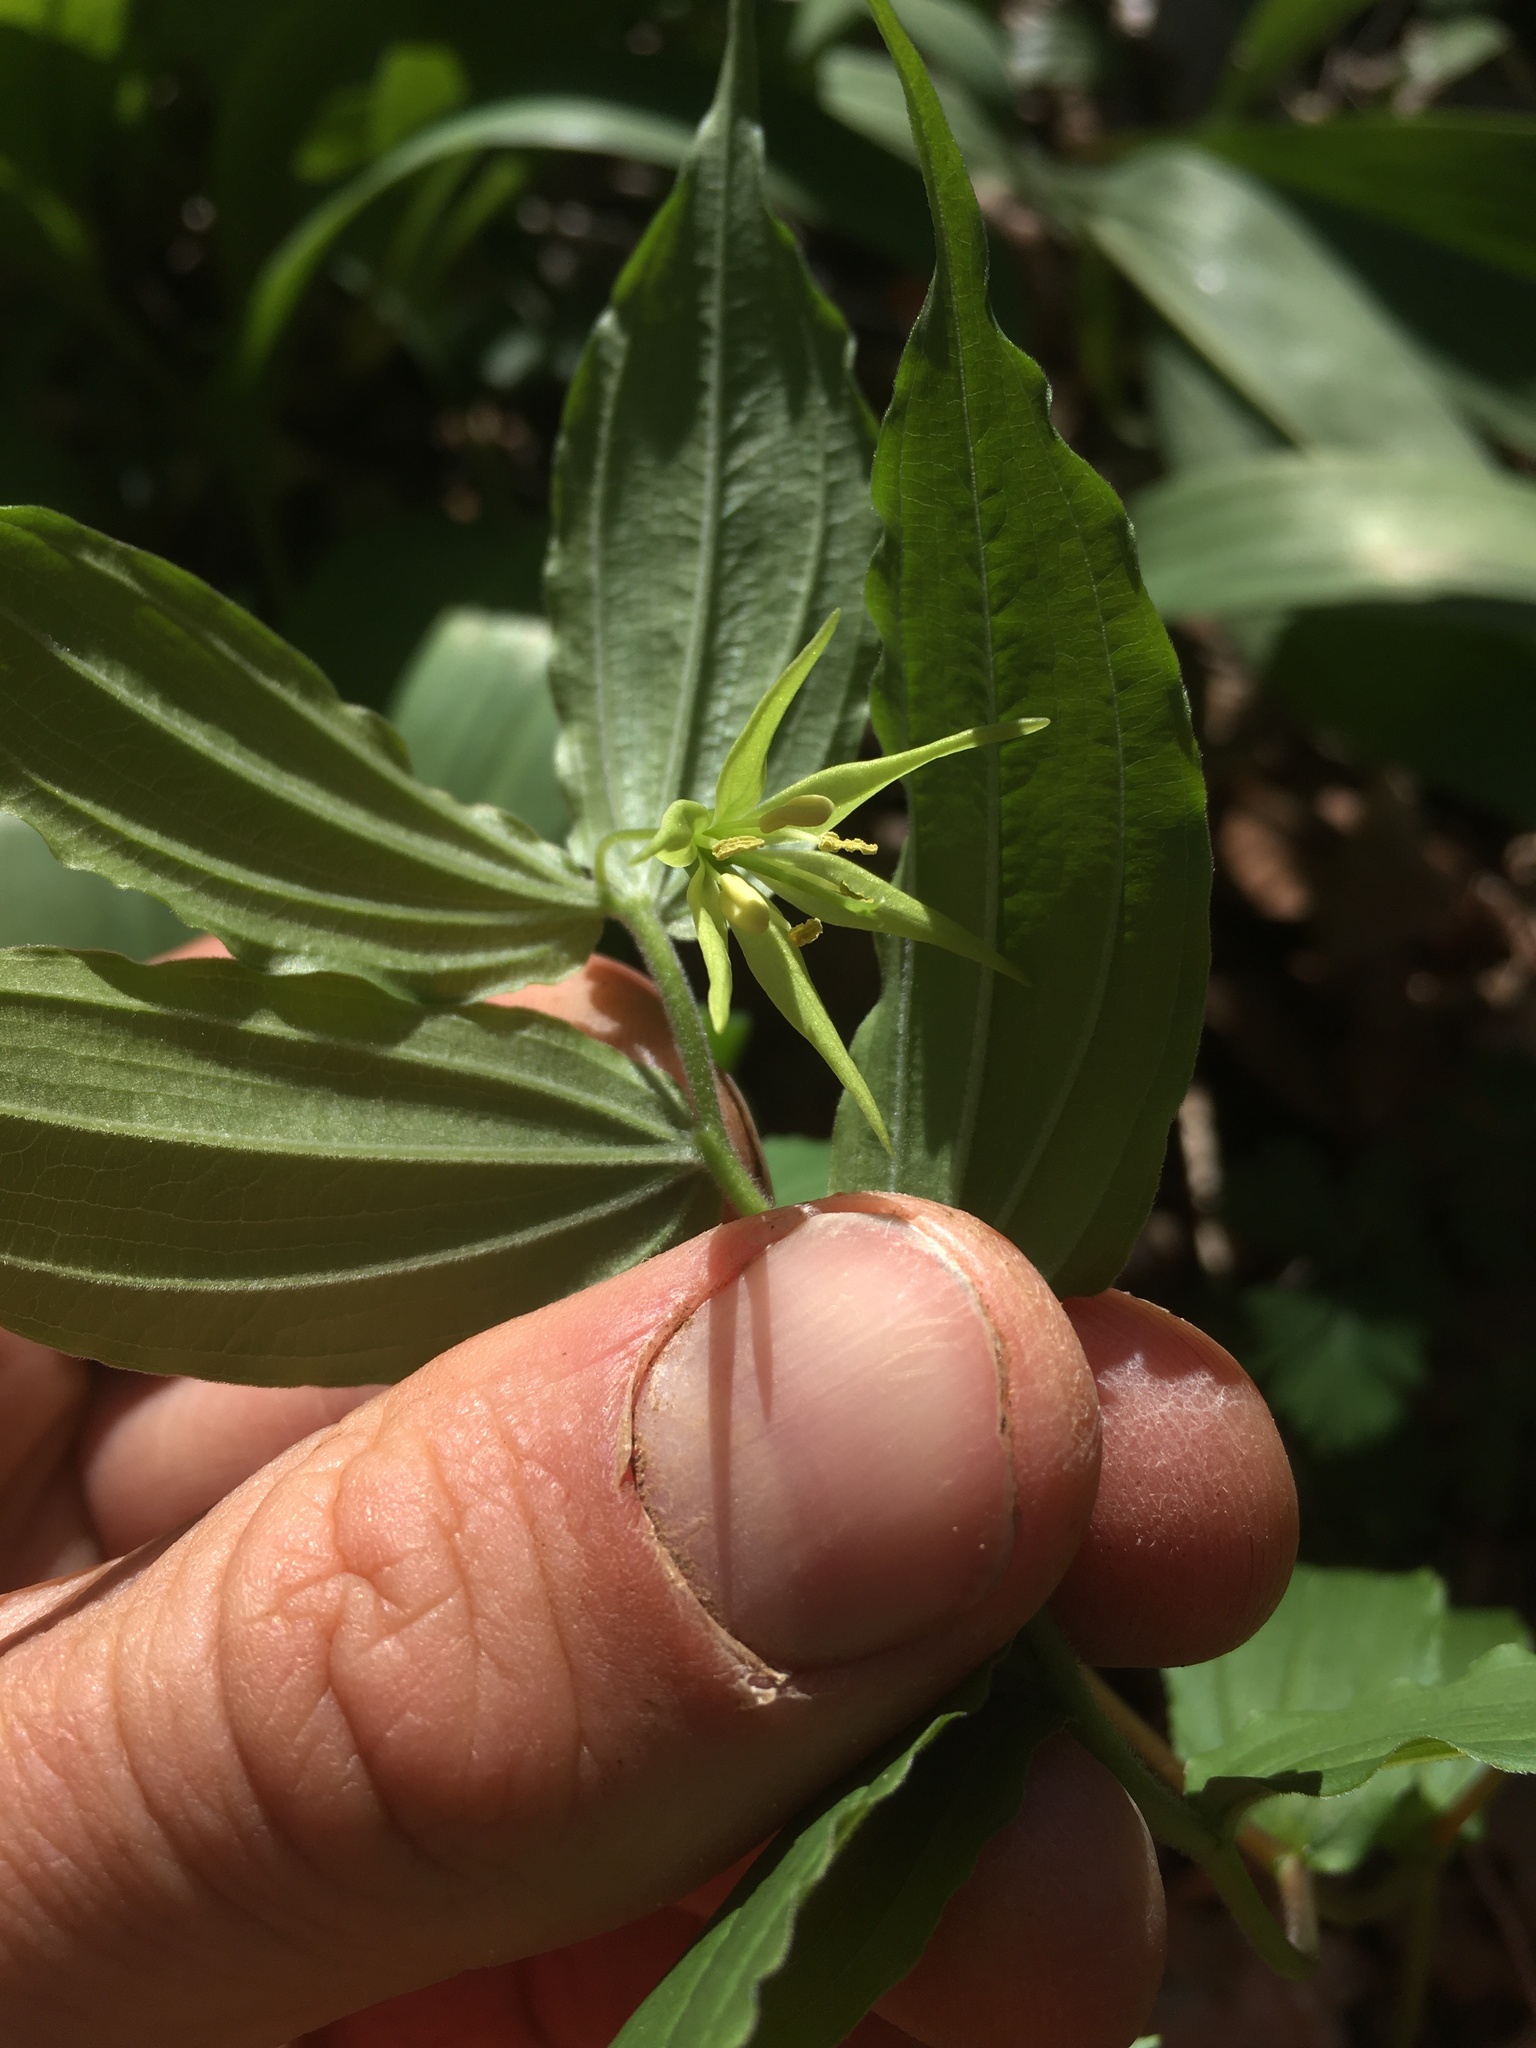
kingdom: Plantae
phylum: Tracheophyta
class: Liliopsida
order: Liliales
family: Liliaceae
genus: Prosartes
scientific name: Prosartes lanuginosa
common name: Hairy mandarin
